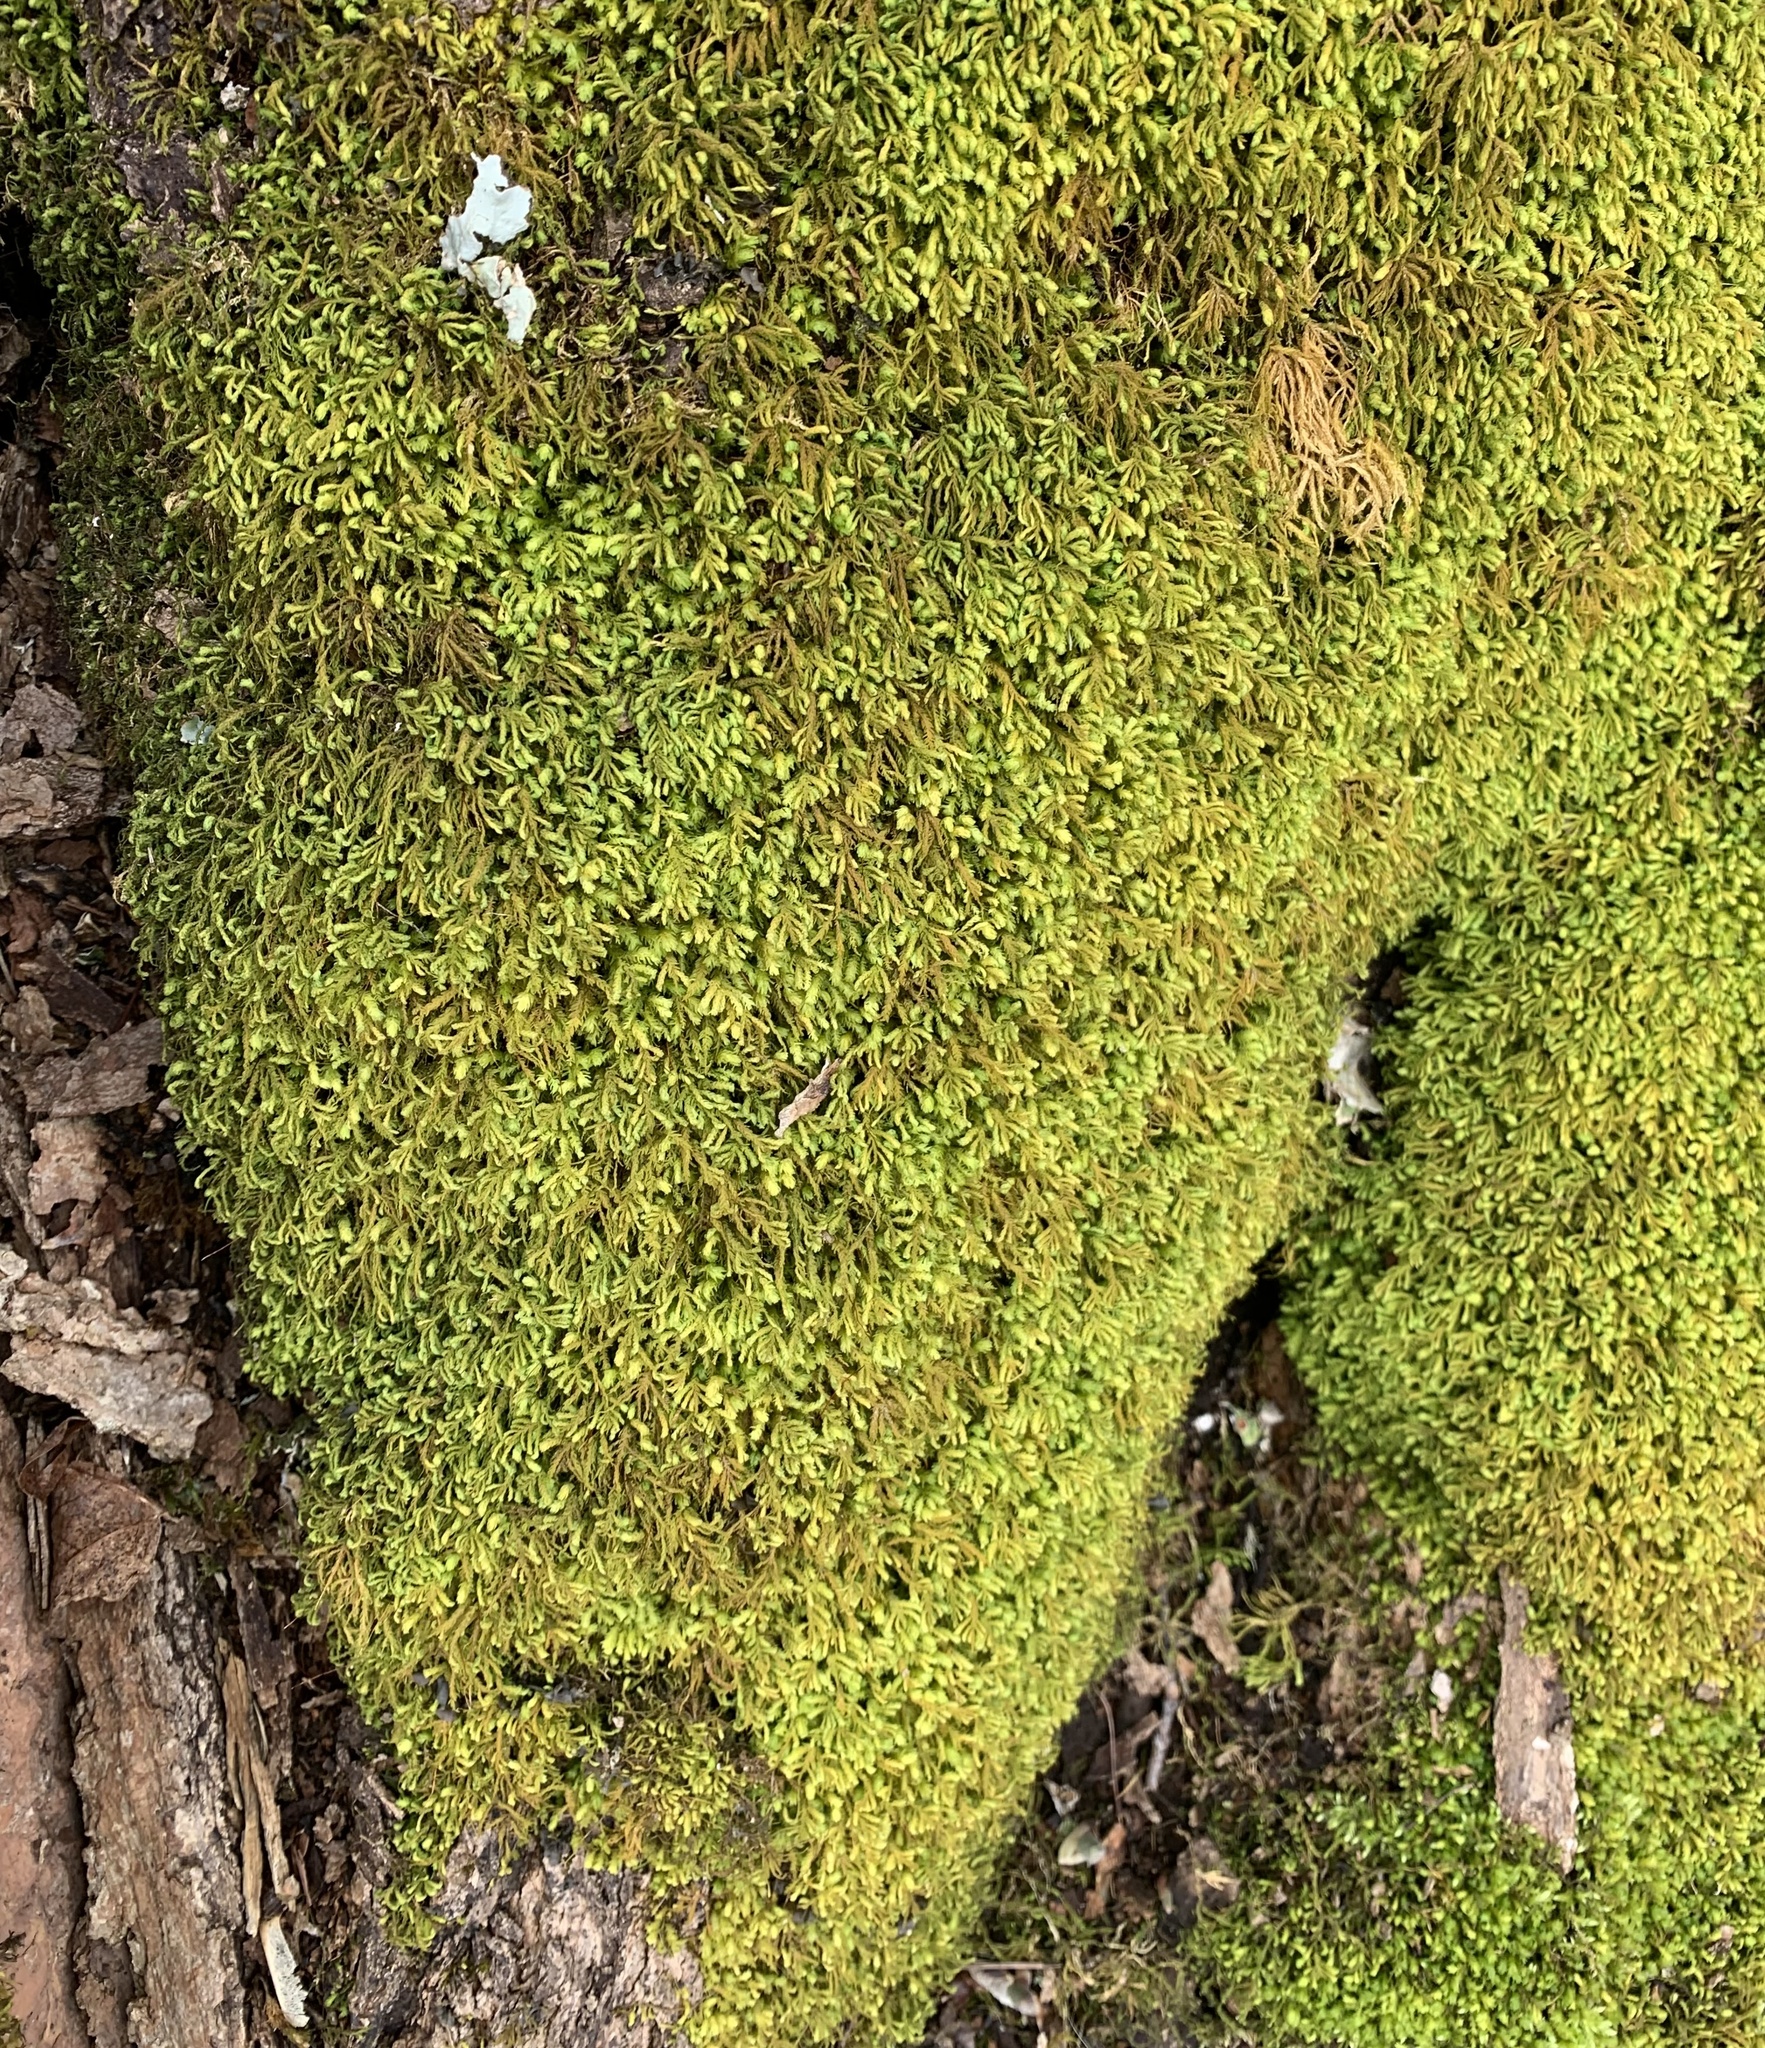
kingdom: Plantae
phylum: Bryophyta
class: Bryopsida
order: Hypnales
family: Neckeraceae
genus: Pseudanomodon
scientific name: Pseudanomodon attenuatus
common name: Tree-skirt moss
